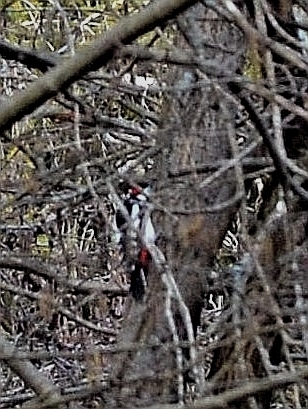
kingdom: Animalia
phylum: Chordata
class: Aves
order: Piciformes
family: Picidae
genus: Dendrocopos
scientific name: Dendrocopos major
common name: Great spotted woodpecker
